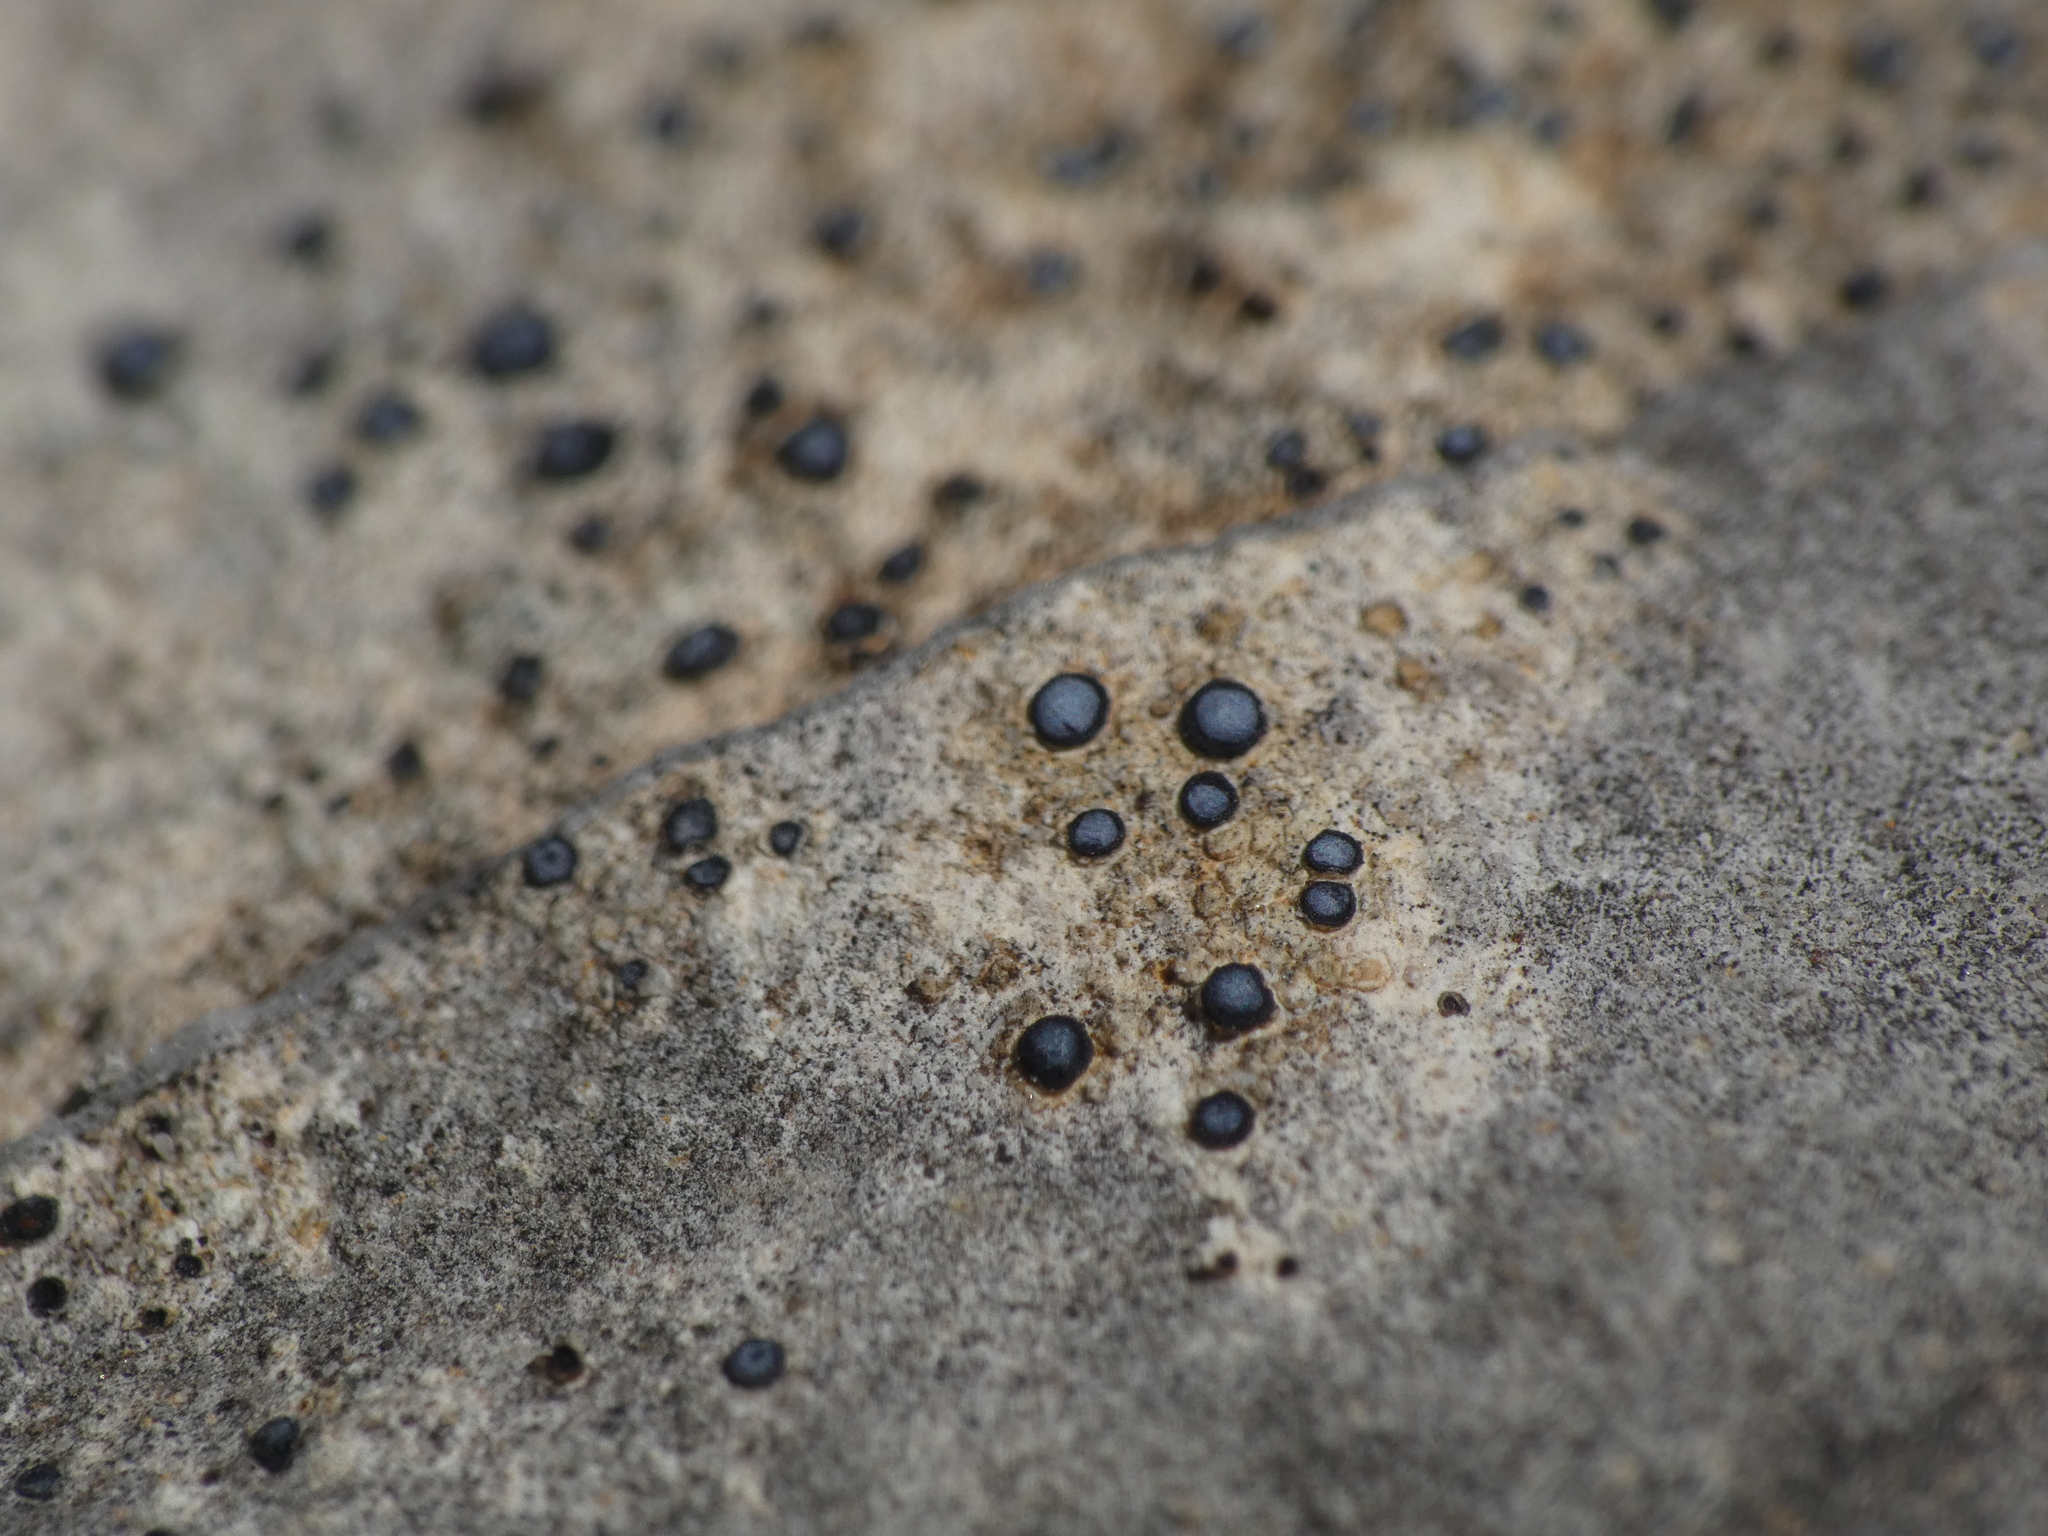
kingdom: Fungi
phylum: Ascomycota
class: Lecanoromycetes
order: Acarosporales
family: Acarosporaceae
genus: Sarcogyne
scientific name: Sarcogyne regularis
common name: Frosted grain-spored lichen
